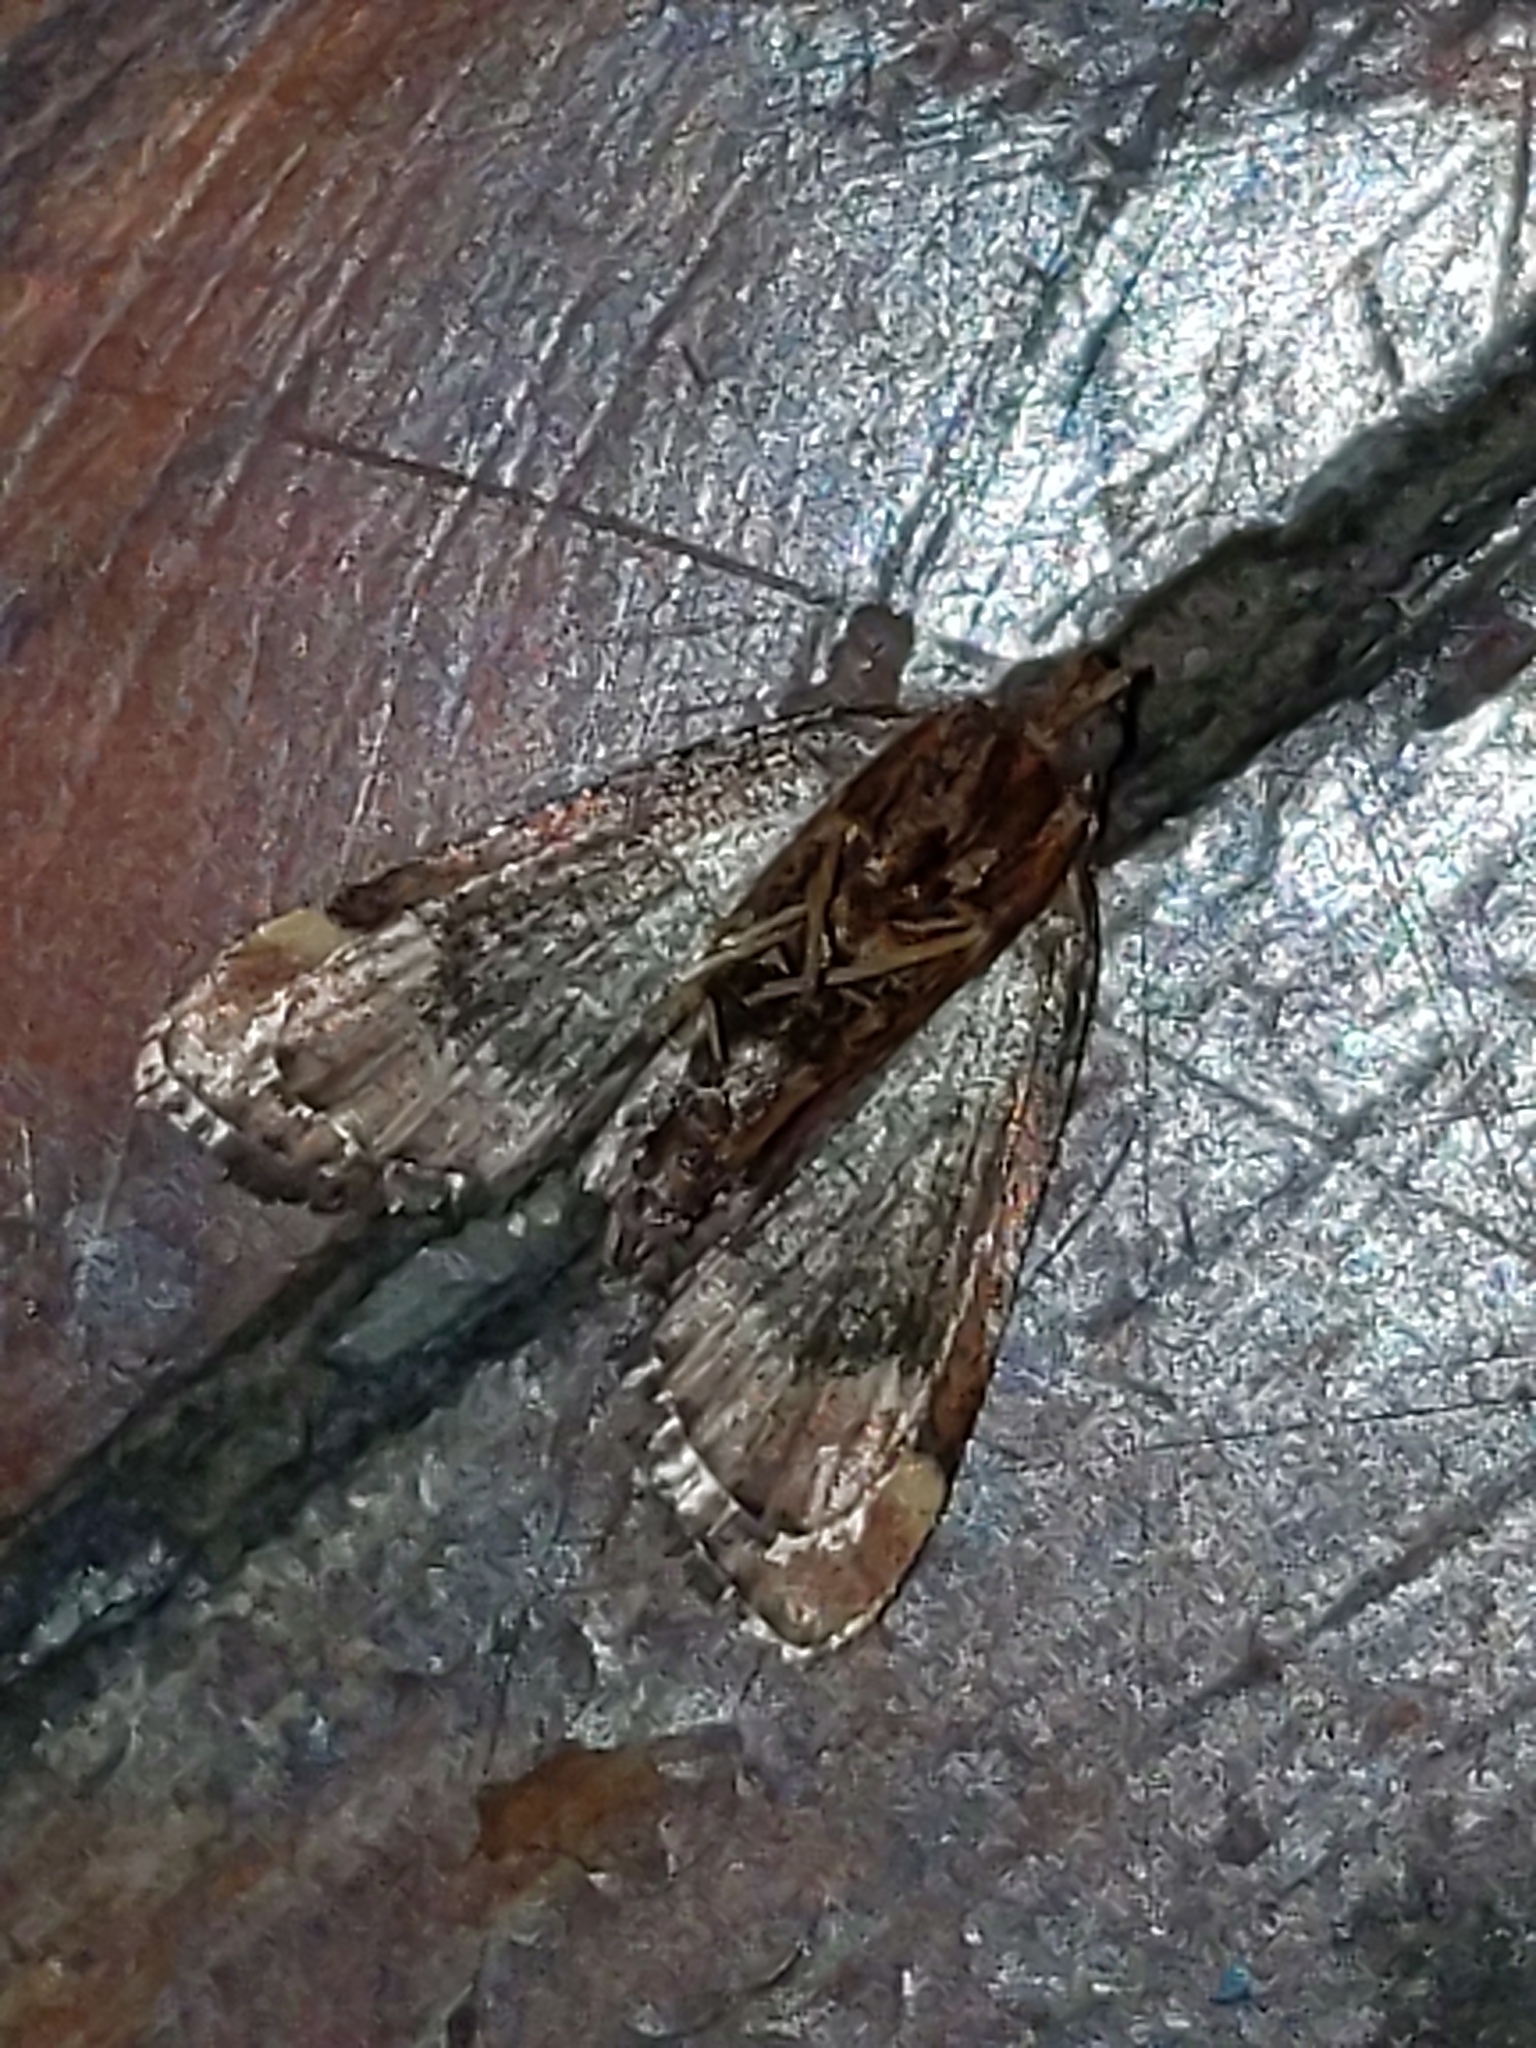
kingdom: Animalia
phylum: Arthropoda
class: Insecta
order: Lepidoptera
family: Pyralidae
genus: Hypsopygia
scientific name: Hypsopygia intermedialis
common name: Red-shawled moth
